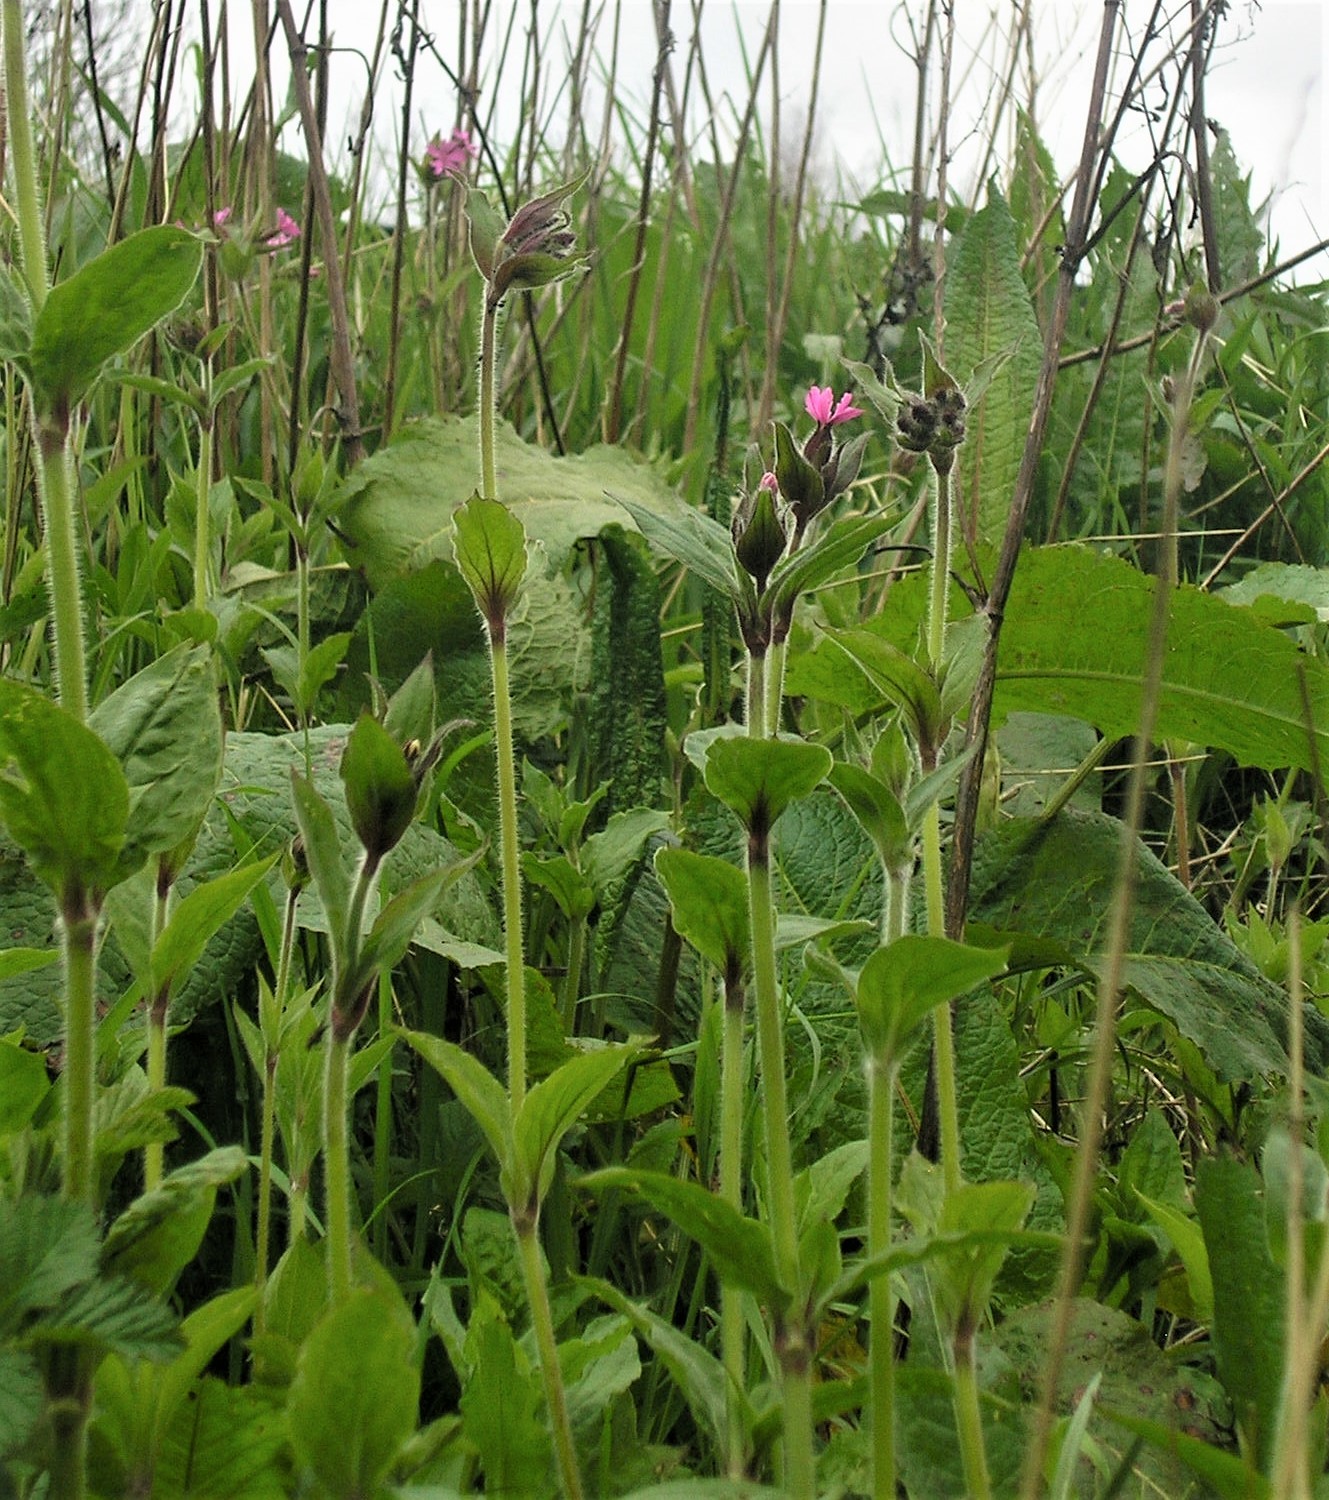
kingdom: Plantae
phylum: Tracheophyta
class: Magnoliopsida
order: Caryophyllales
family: Caryophyllaceae
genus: Silene
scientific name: Silene dioica
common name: Red campion
